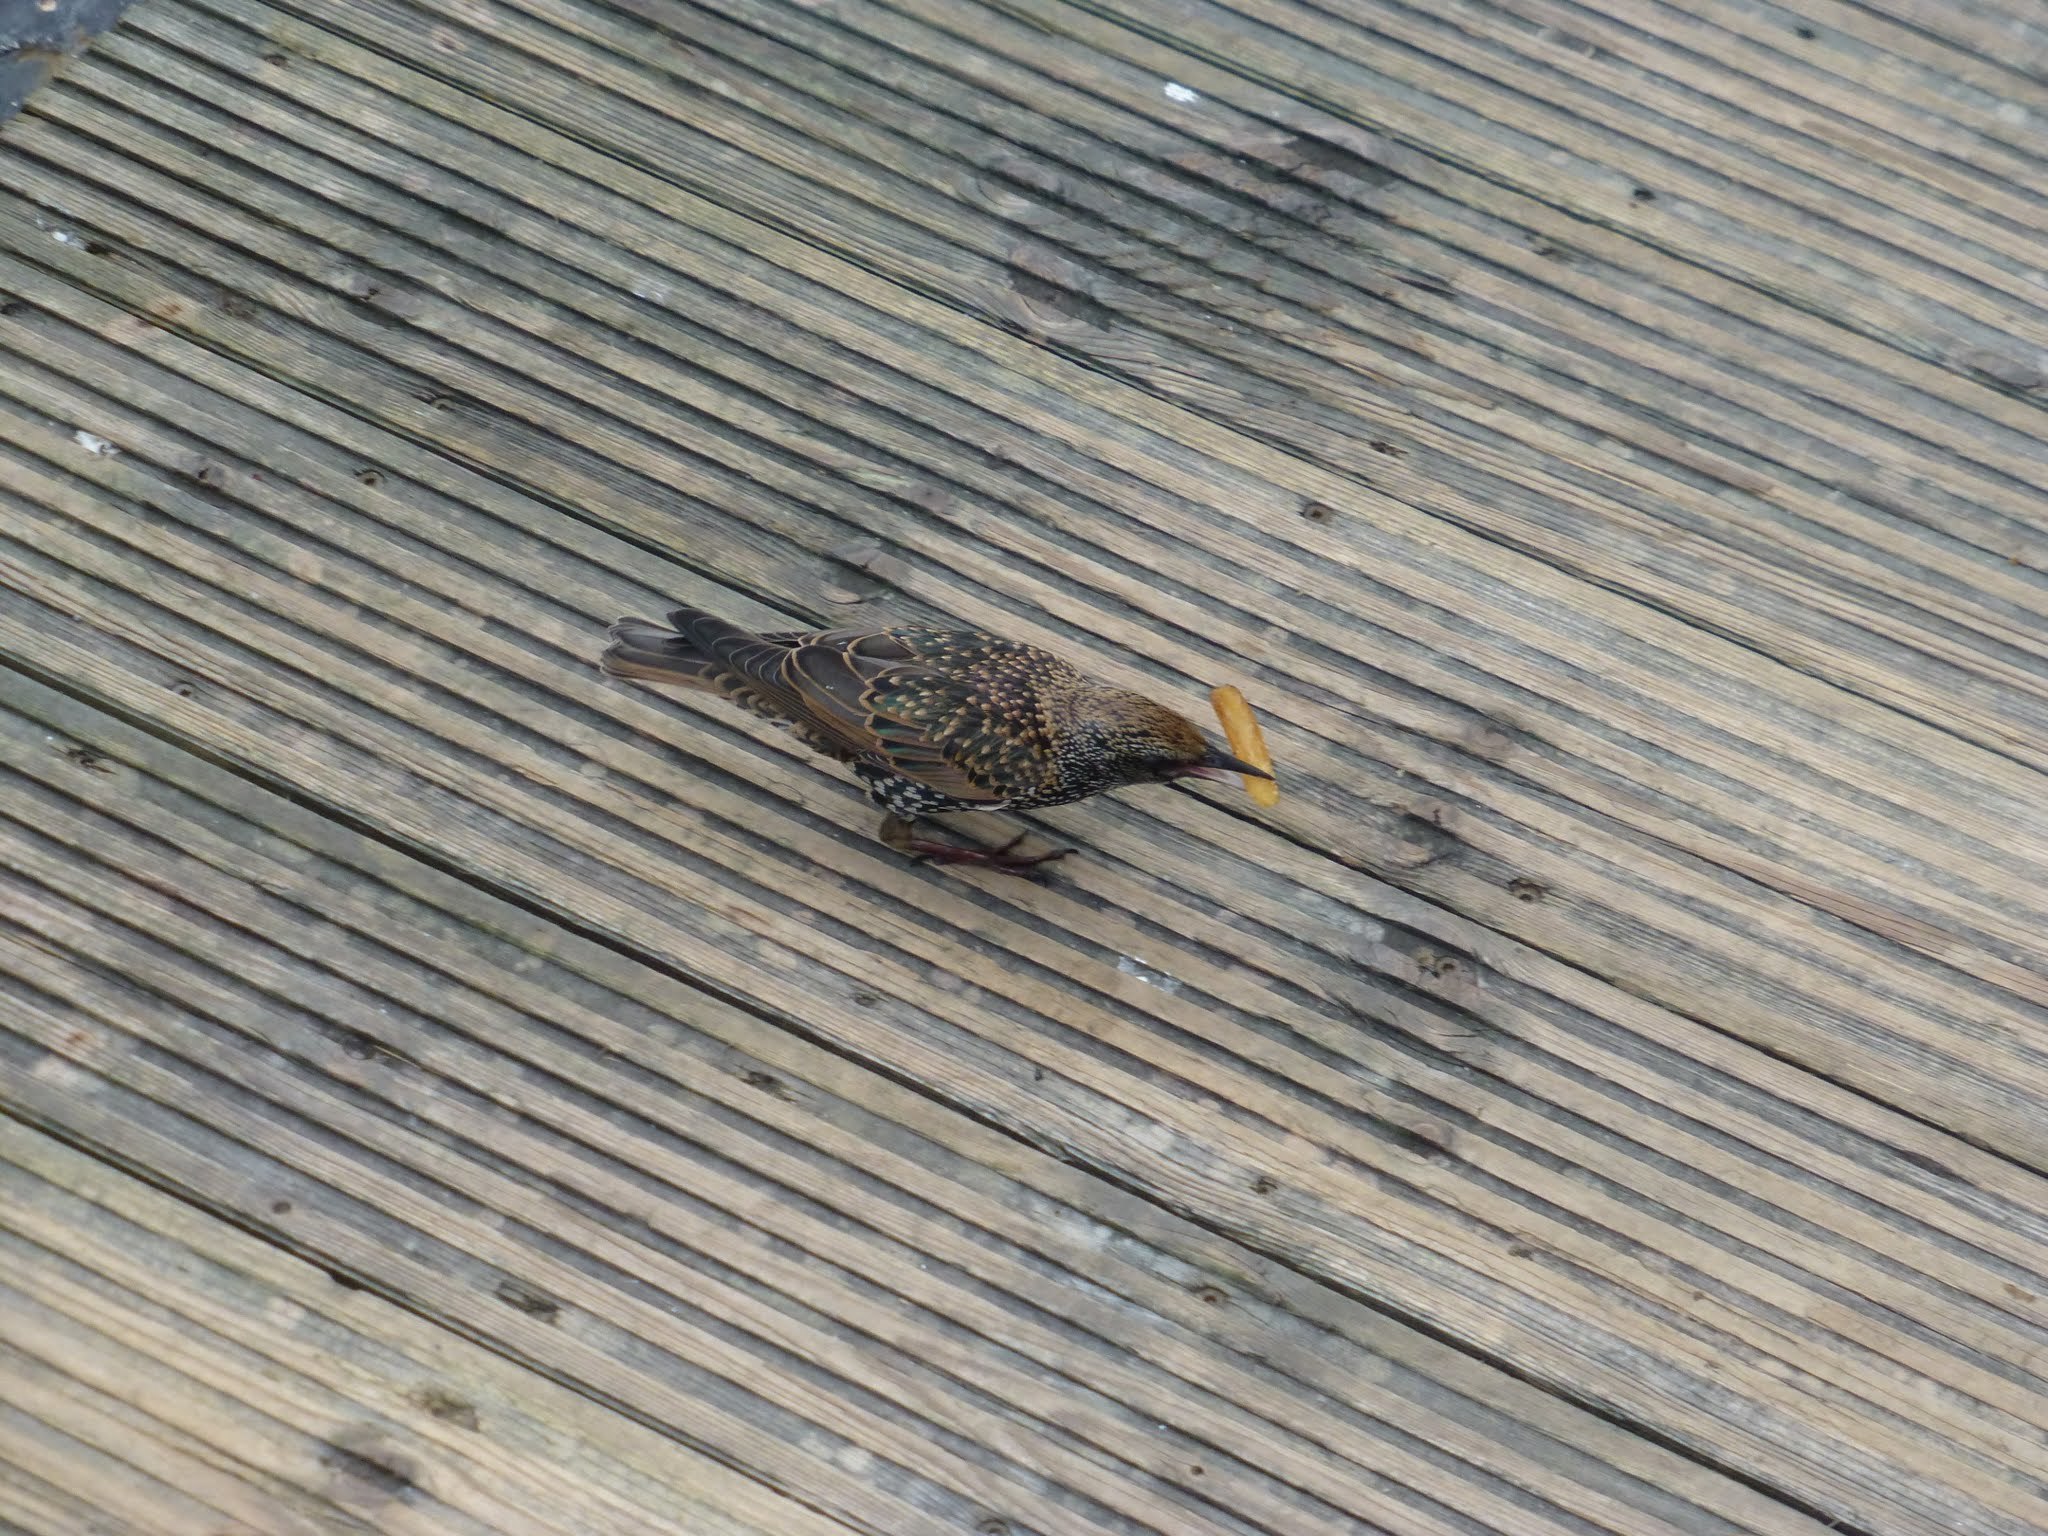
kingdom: Animalia
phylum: Chordata
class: Aves
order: Passeriformes
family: Sturnidae
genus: Sturnus
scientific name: Sturnus vulgaris
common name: Common starling
